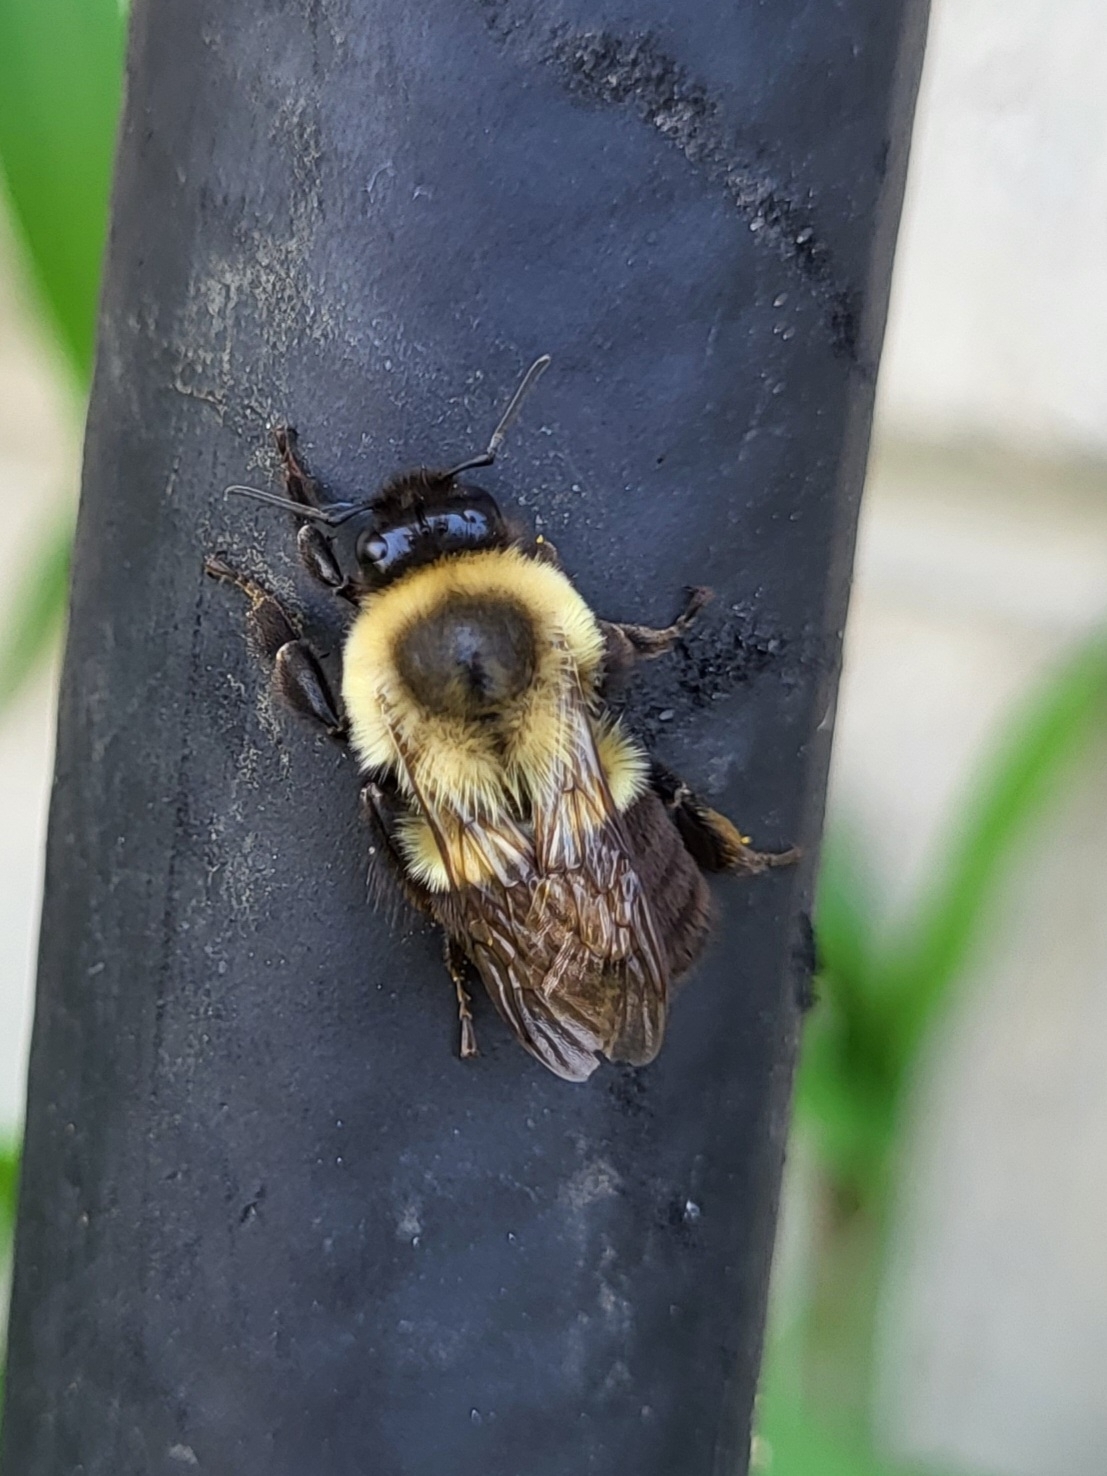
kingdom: Animalia
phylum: Arthropoda
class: Insecta
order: Hymenoptera
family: Apidae
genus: Bombus
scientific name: Bombus impatiens
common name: Common eastern bumble bee
